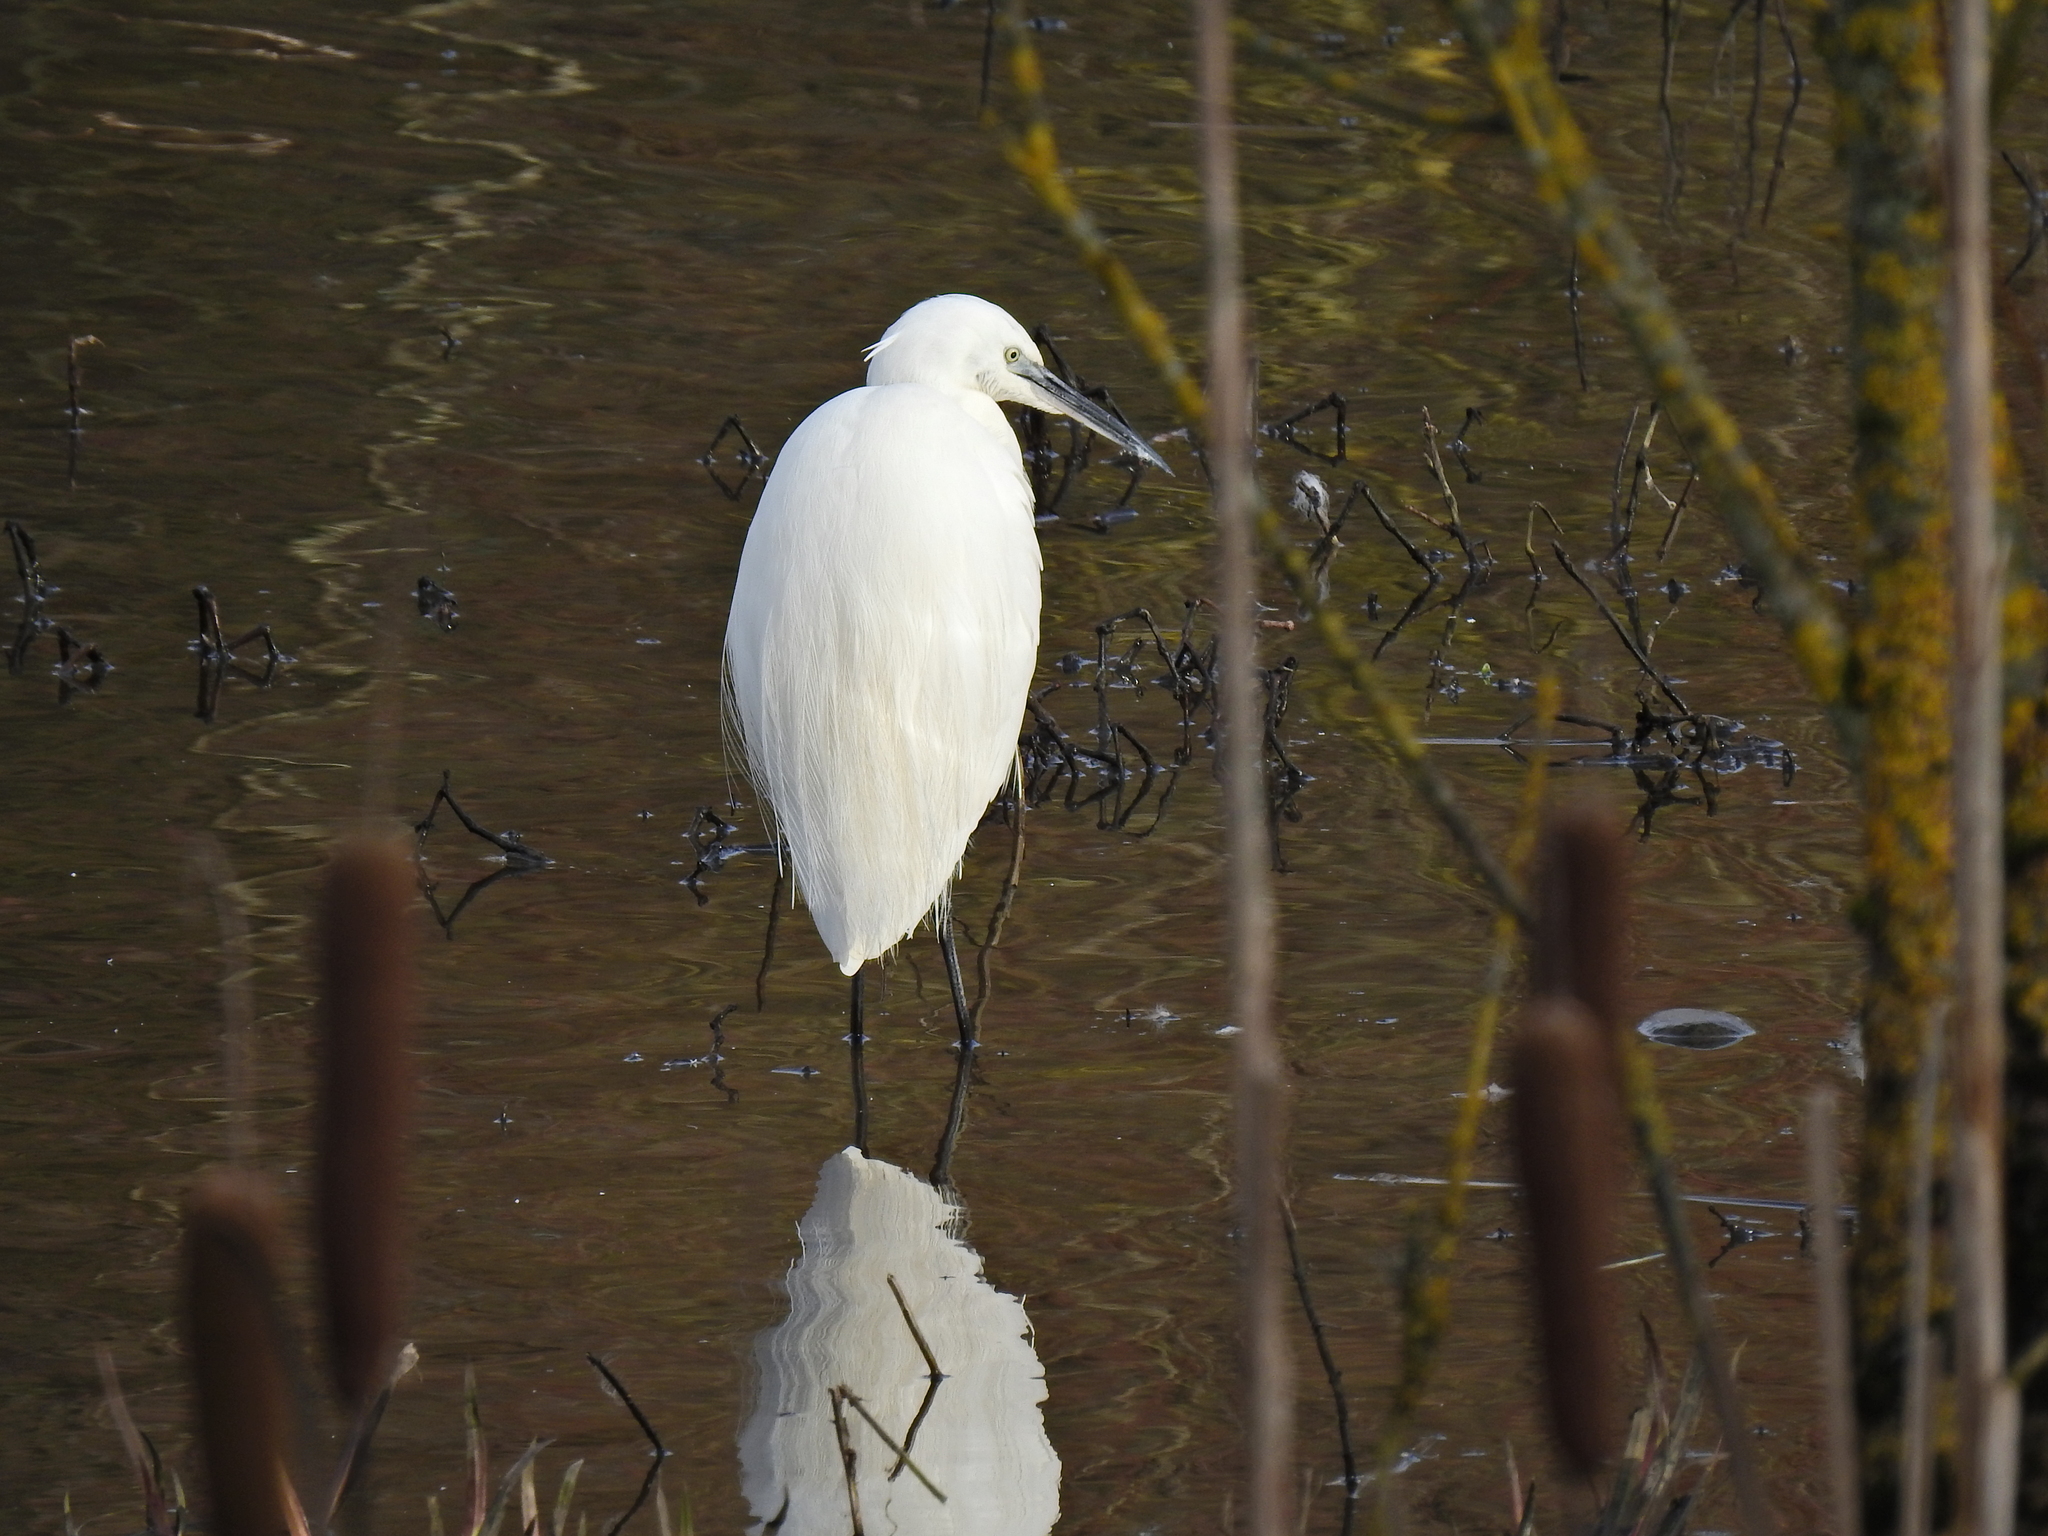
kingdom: Animalia
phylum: Chordata
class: Aves
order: Pelecaniformes
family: Ardeidae
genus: Egretta
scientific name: Egretta garzetta
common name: Little egret
